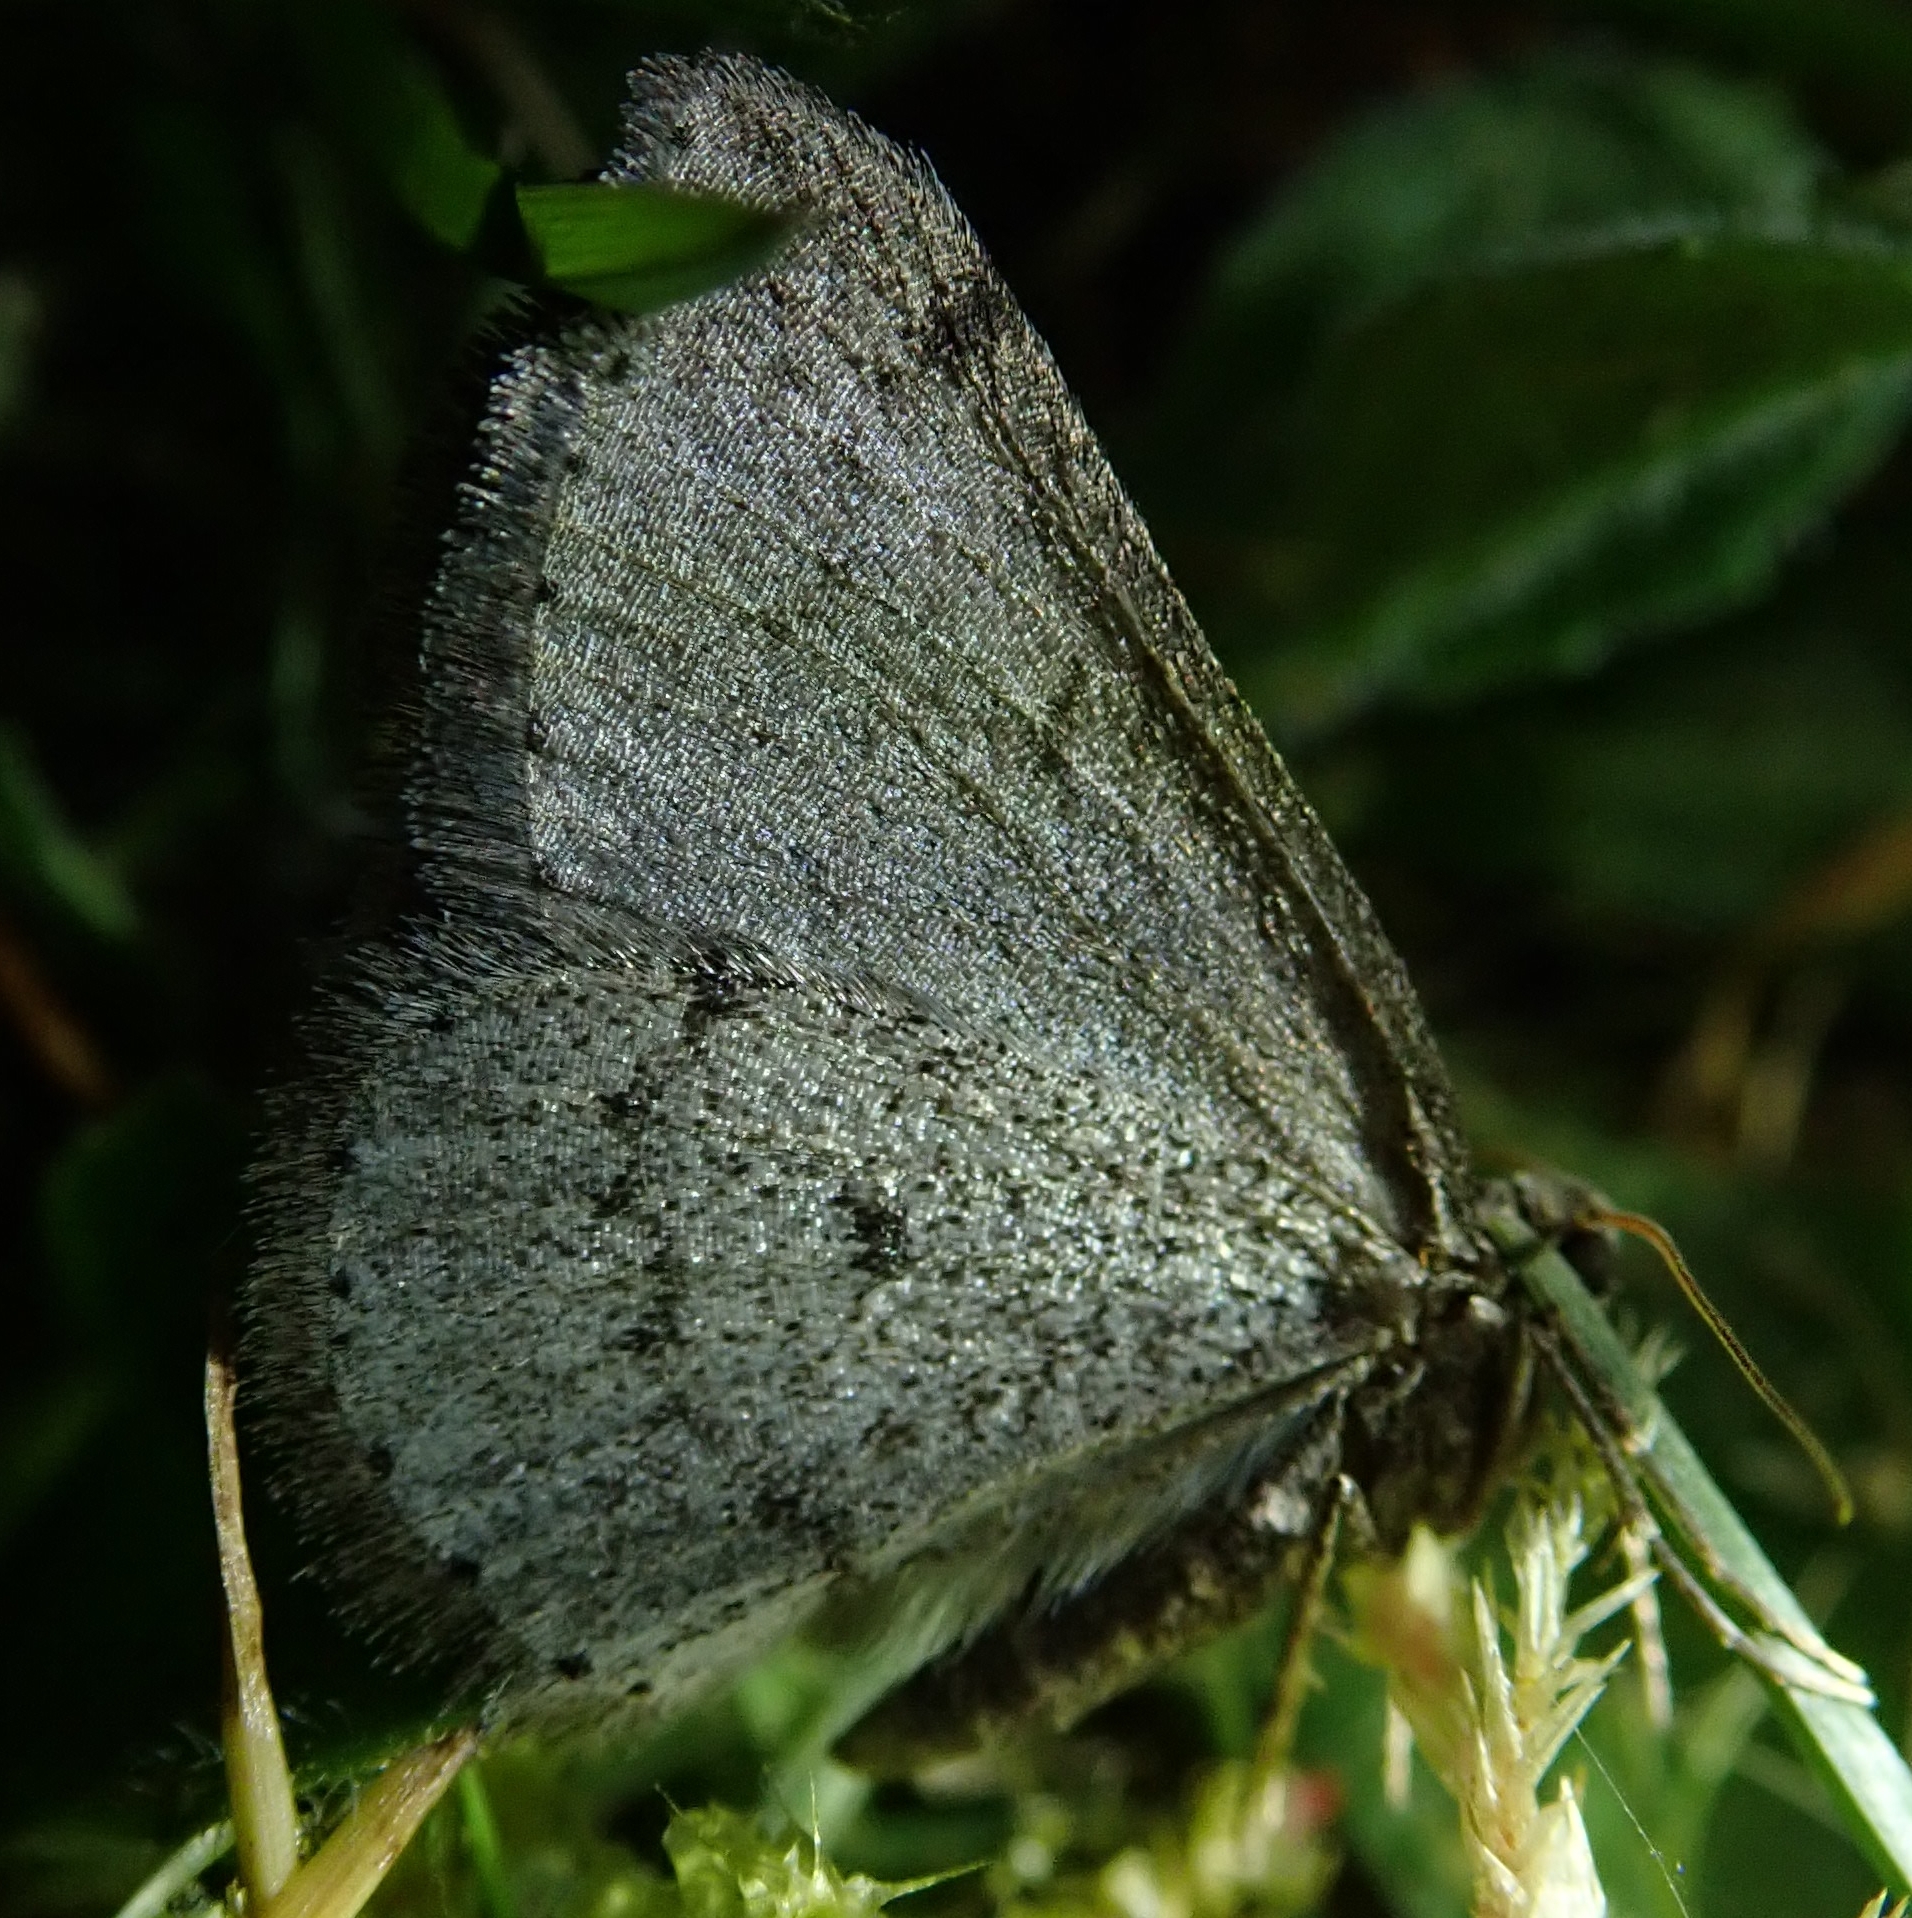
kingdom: Animalia
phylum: Arthropoda
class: Insecta
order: Lepidoptera
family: Geometridae
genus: Aleucis
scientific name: Aleucis distinctata
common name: Sloe carpet
